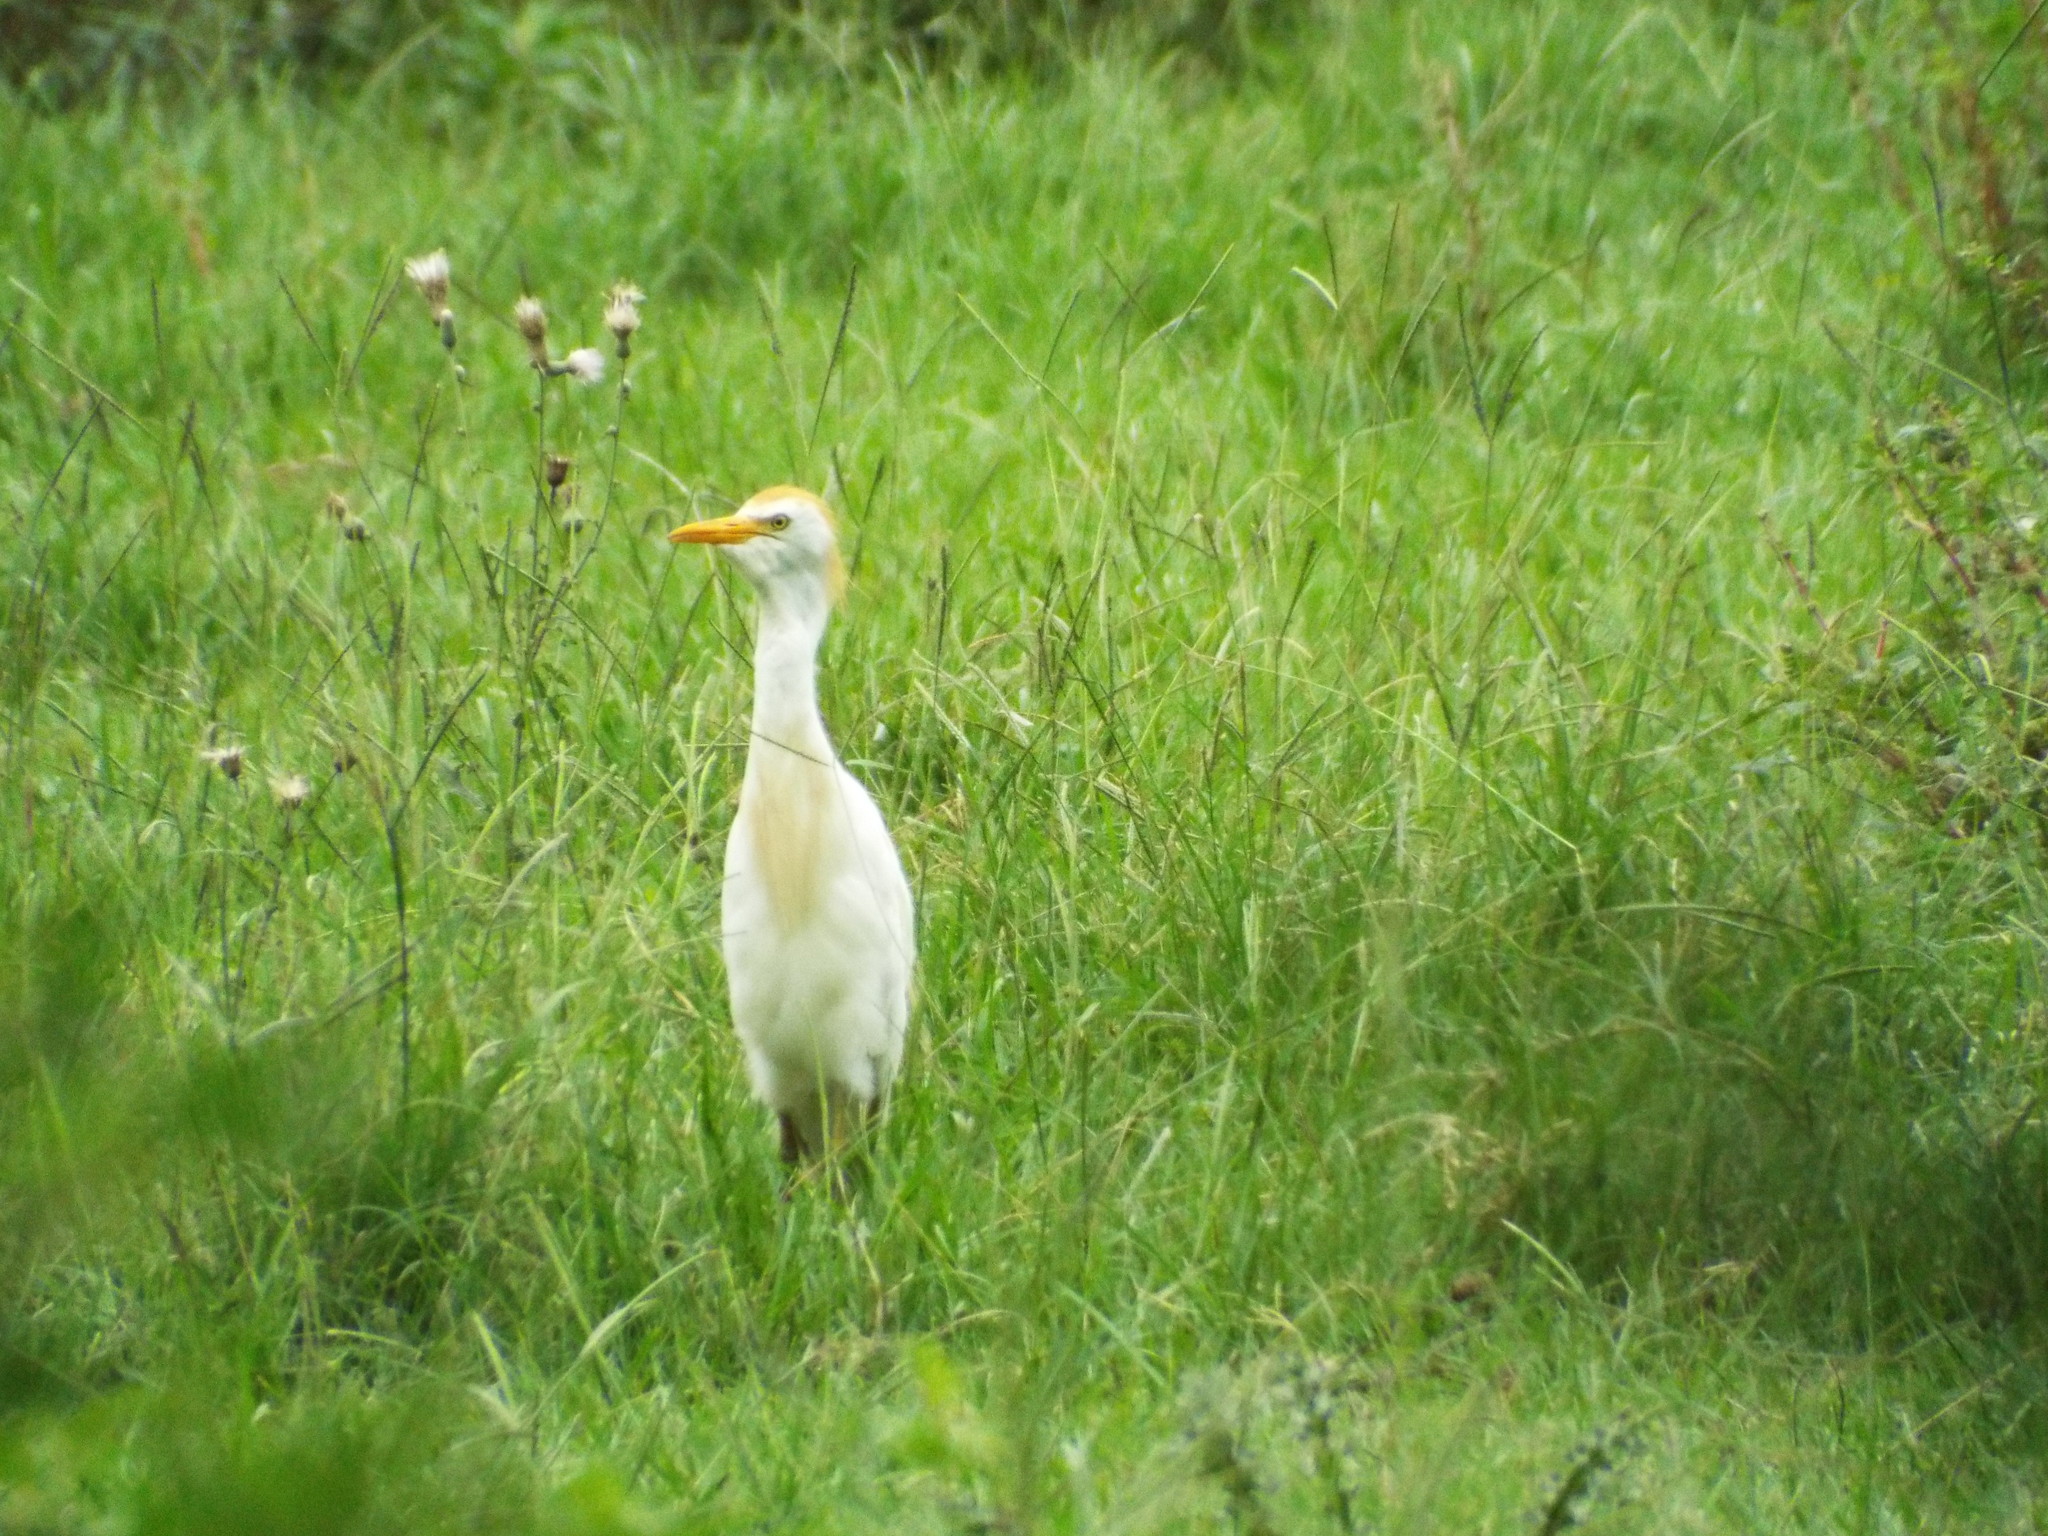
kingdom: Animalia
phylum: Chordata
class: Aves
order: Pelecaniformes
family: Ardeidae
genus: Bubulcus
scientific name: Bubulcus ibis
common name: Cattle egret
